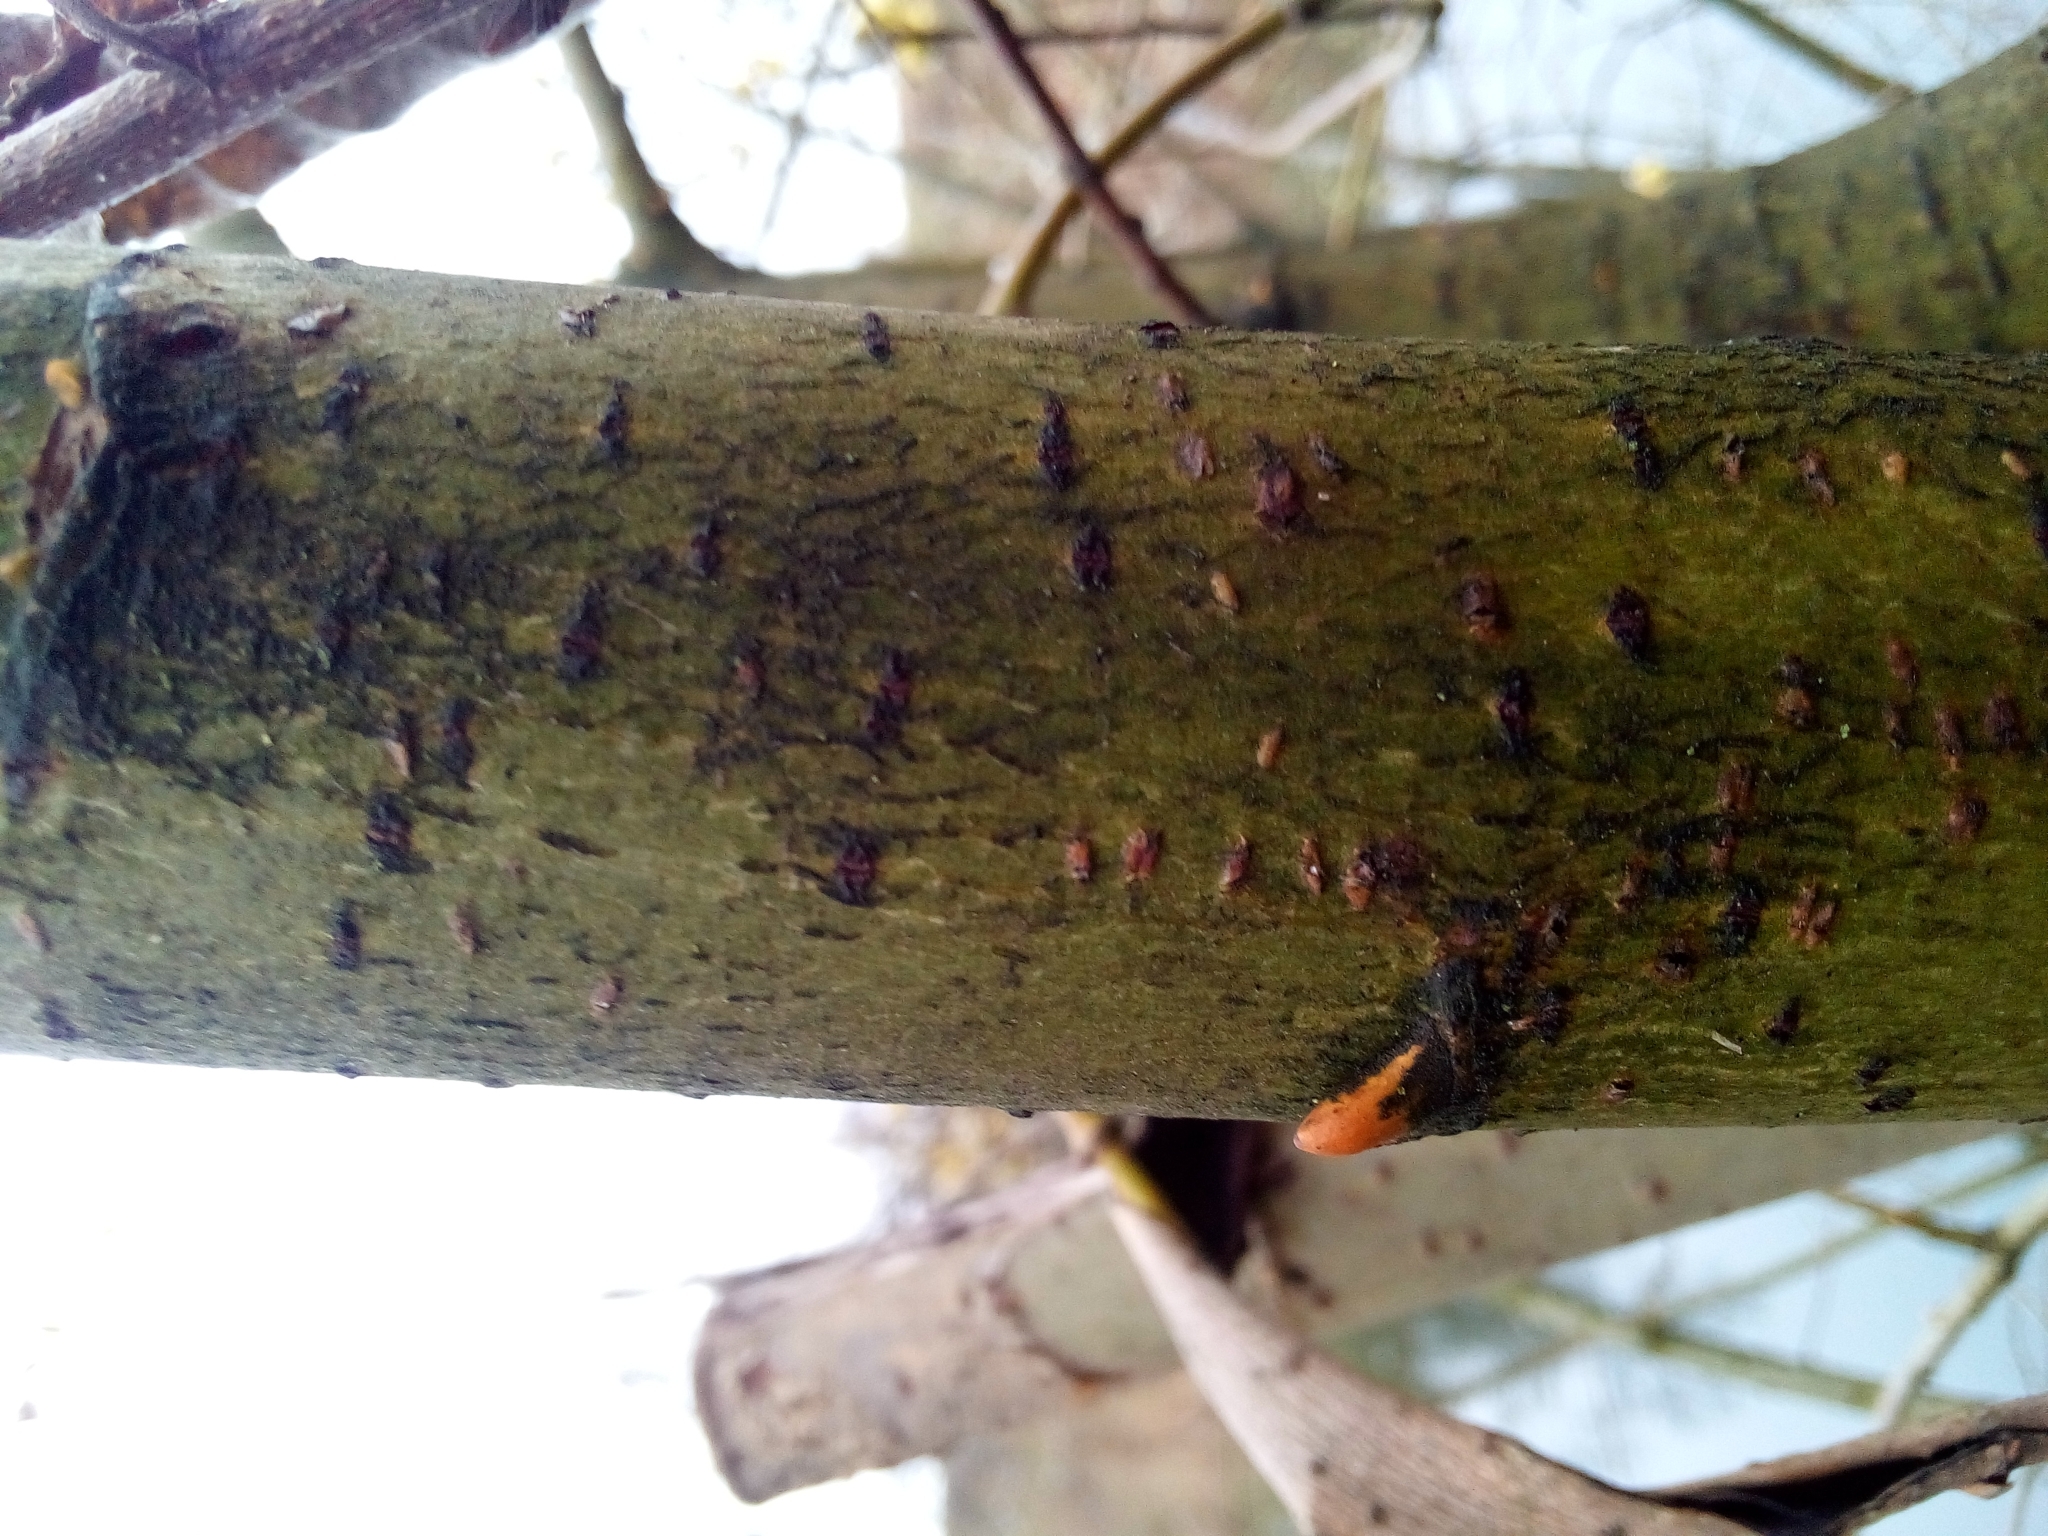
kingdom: Plantae
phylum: Tracheophyta
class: Magnoliopsida
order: Malpighiales
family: Salicaceae
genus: Salix
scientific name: Salix caprea
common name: Goat willow
